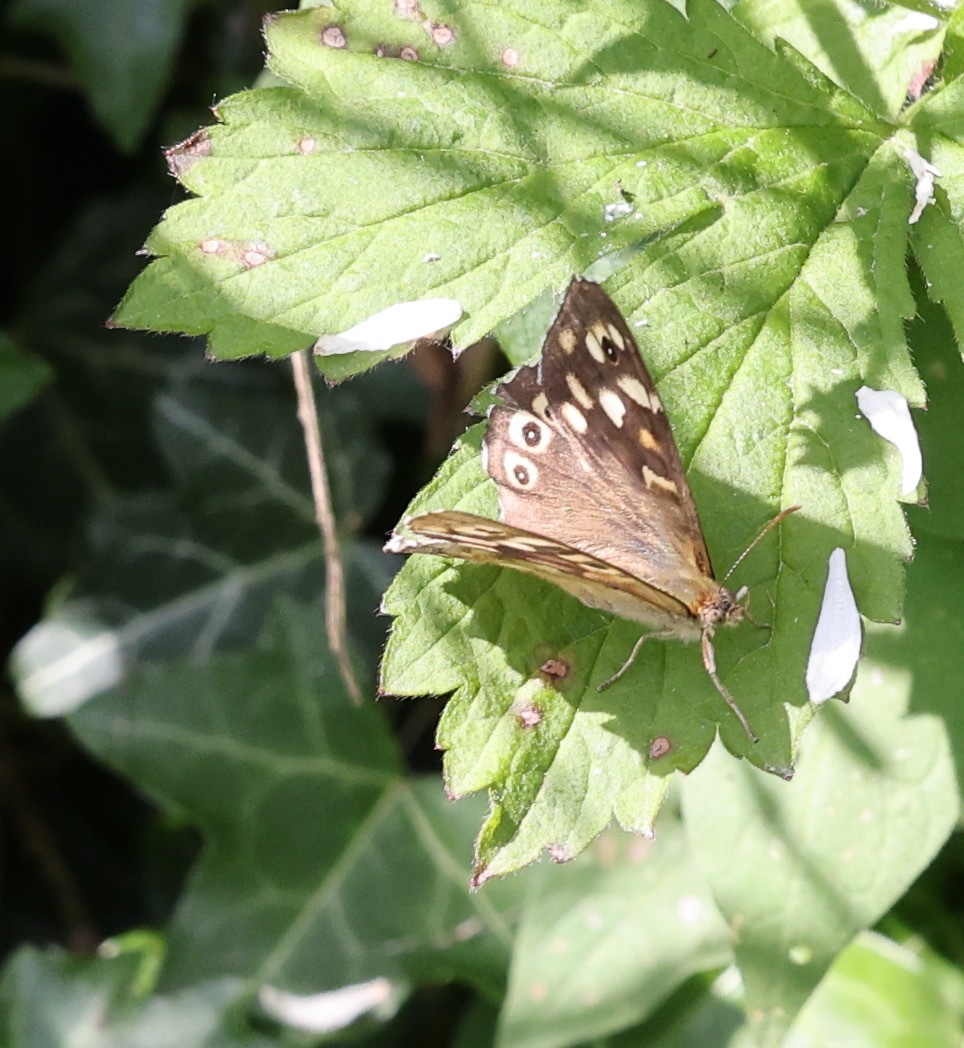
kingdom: Animalia
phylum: Arthropoda
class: Insecta
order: Lepidoptera
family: Nymphalidae
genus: Pararge
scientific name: Pararge aegeria
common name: Speckled wood
